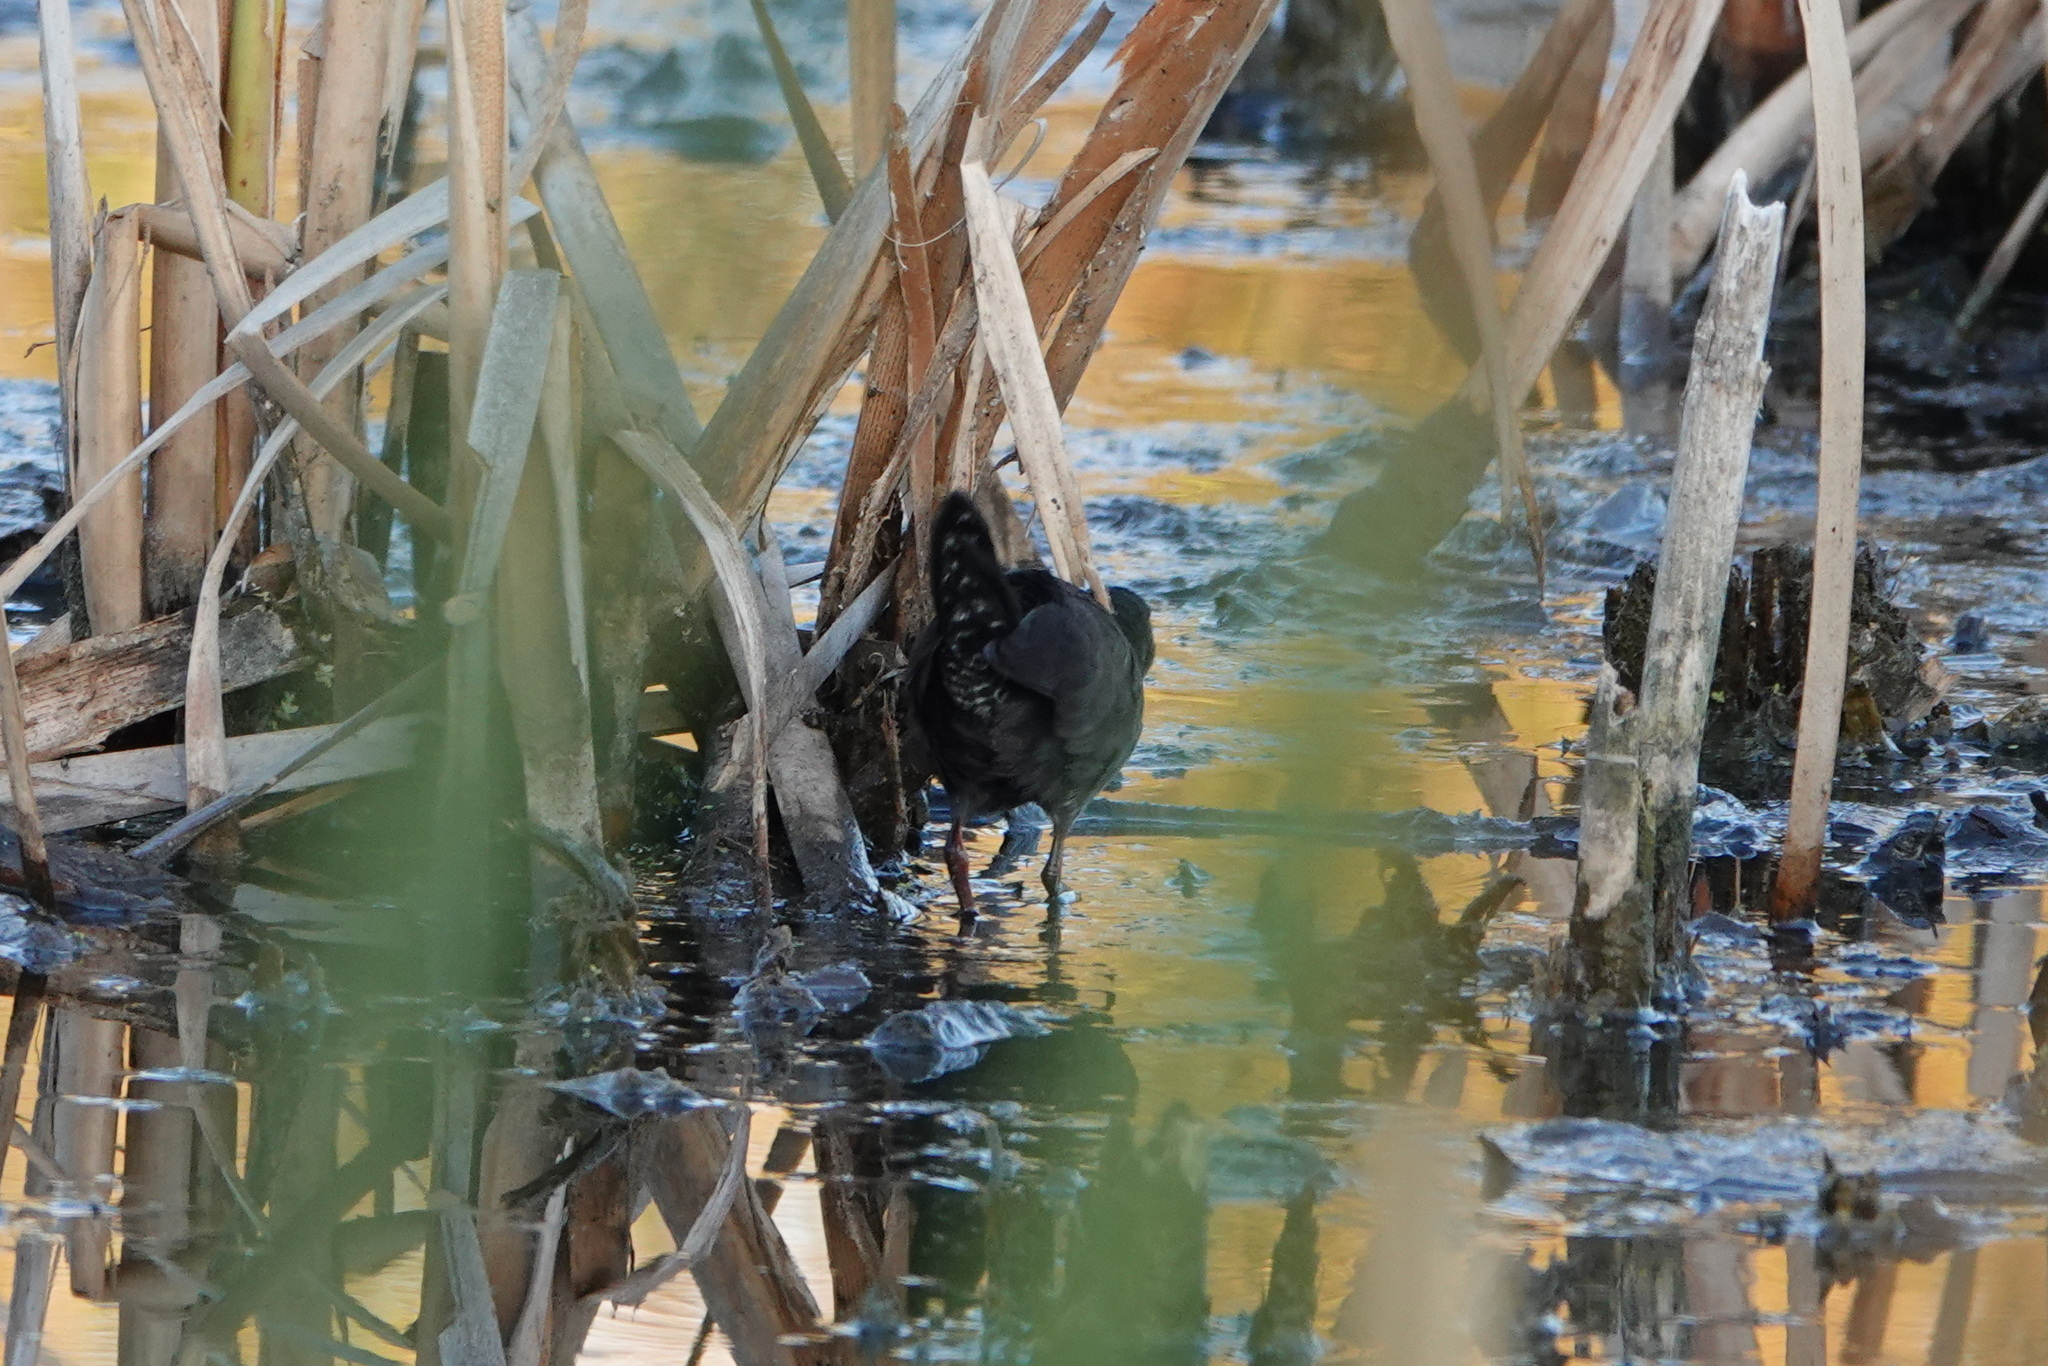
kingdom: Animalia
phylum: Chordata
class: Aves
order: Gruiformes
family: Rallidae
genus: Porzana
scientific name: Porzana tabuensis
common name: Spotless crake
